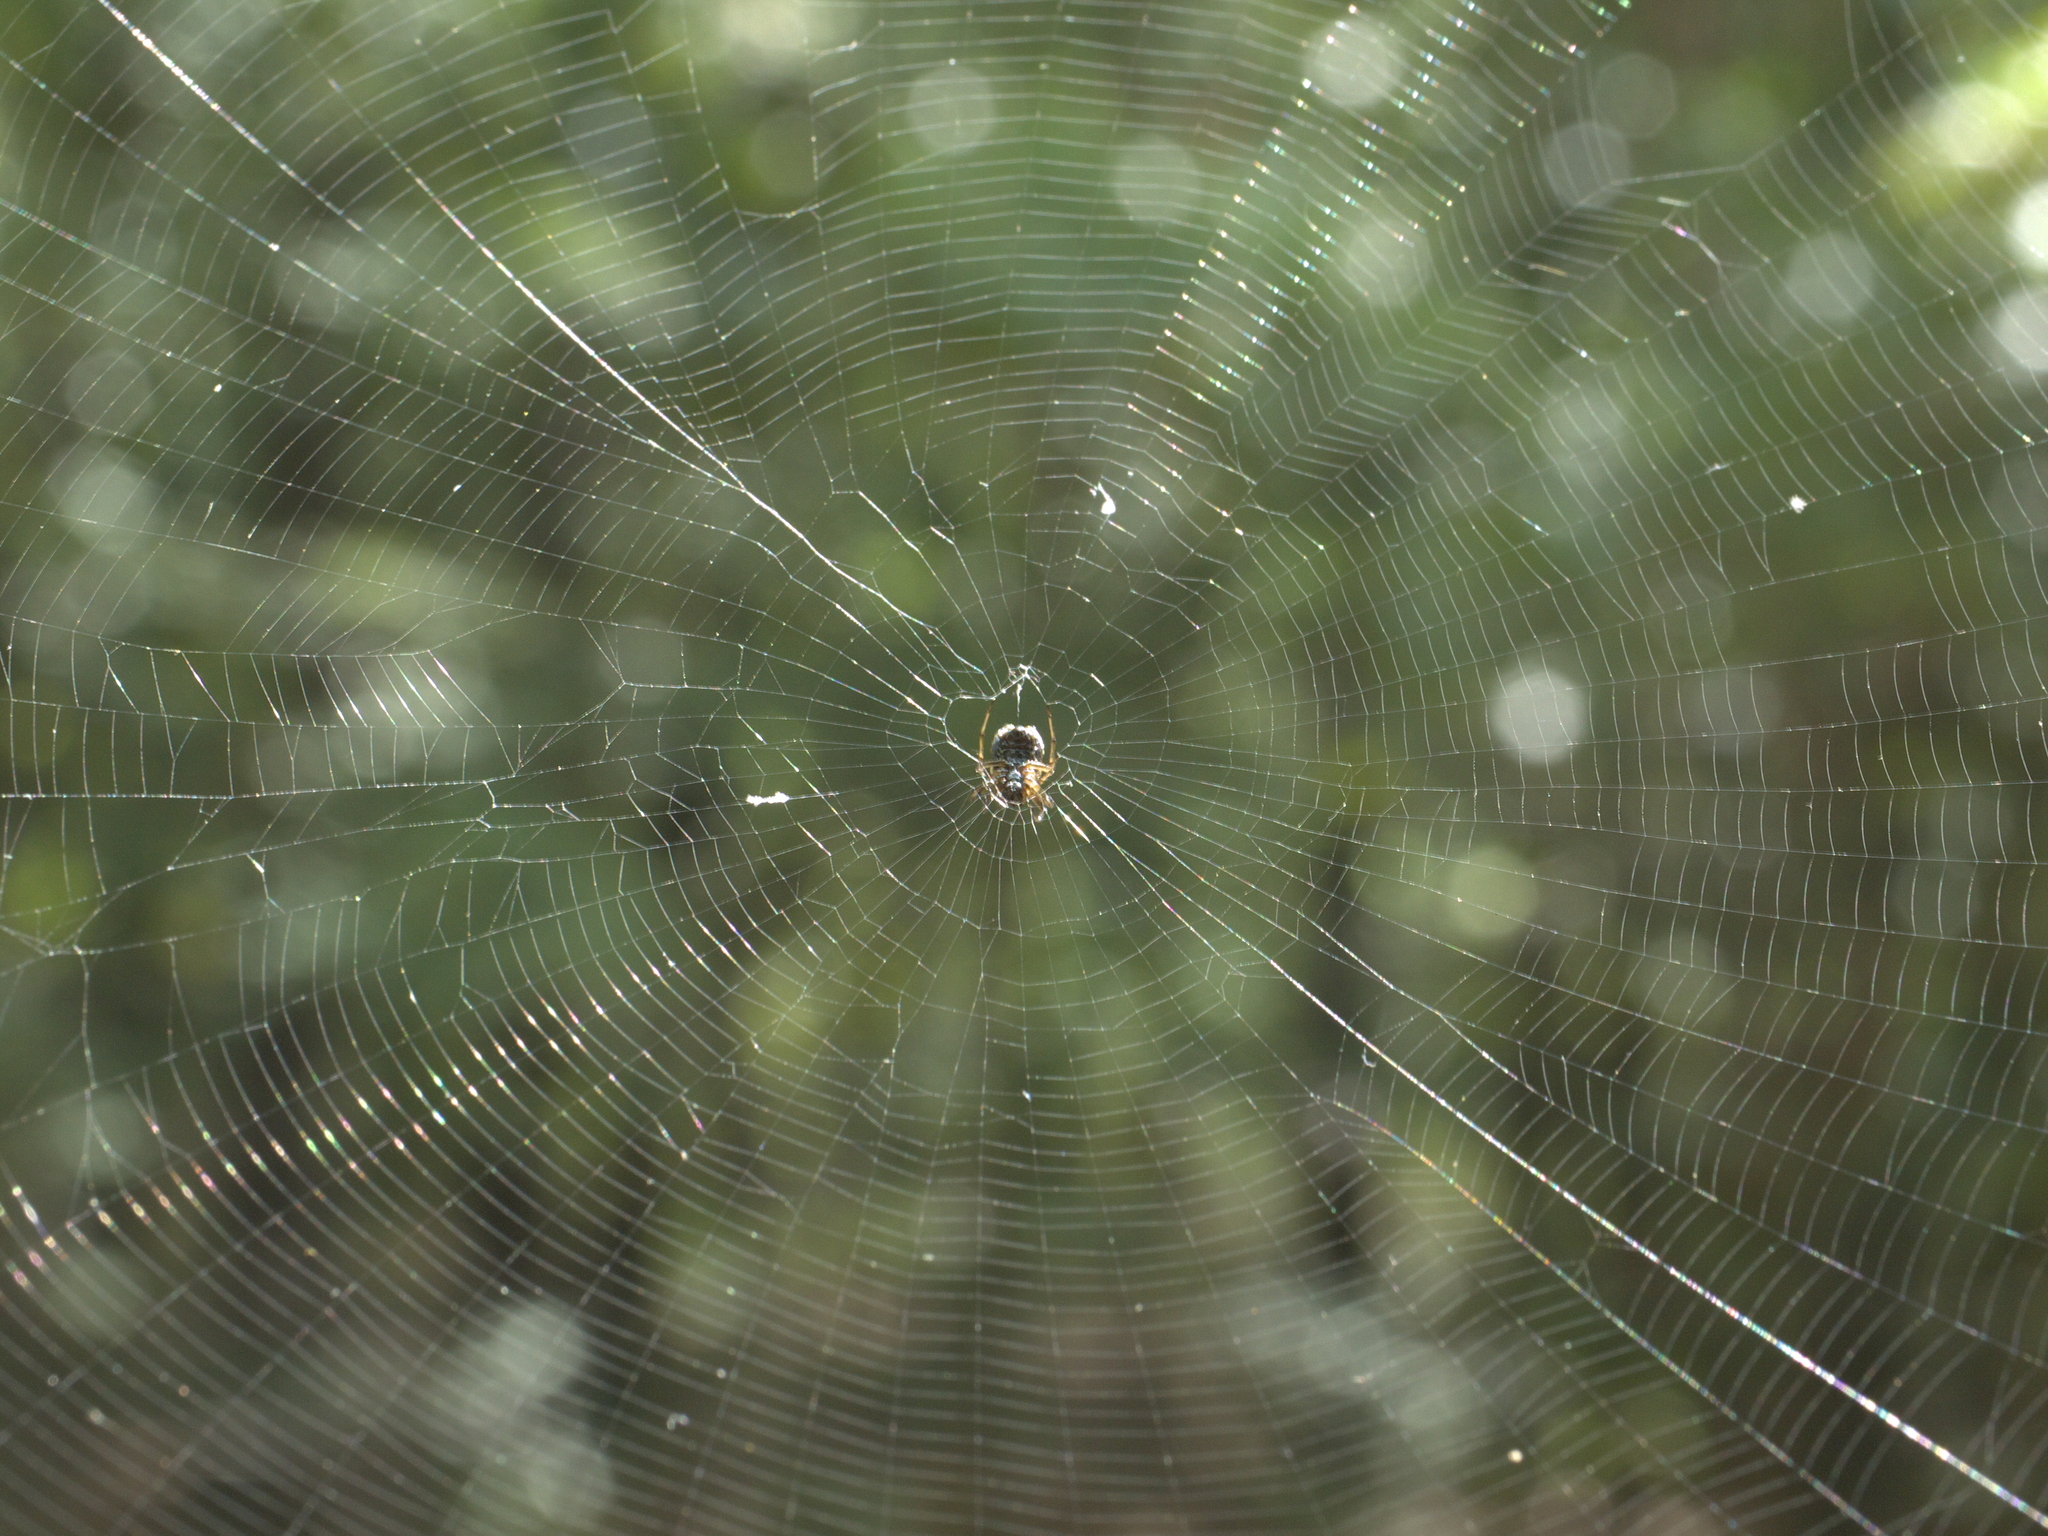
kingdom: Animalia
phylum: Arthropoda
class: Arachnida
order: Araneae
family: Araneidae
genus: Verrucosa
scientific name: Verrucosa arenata
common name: Orb weavers
